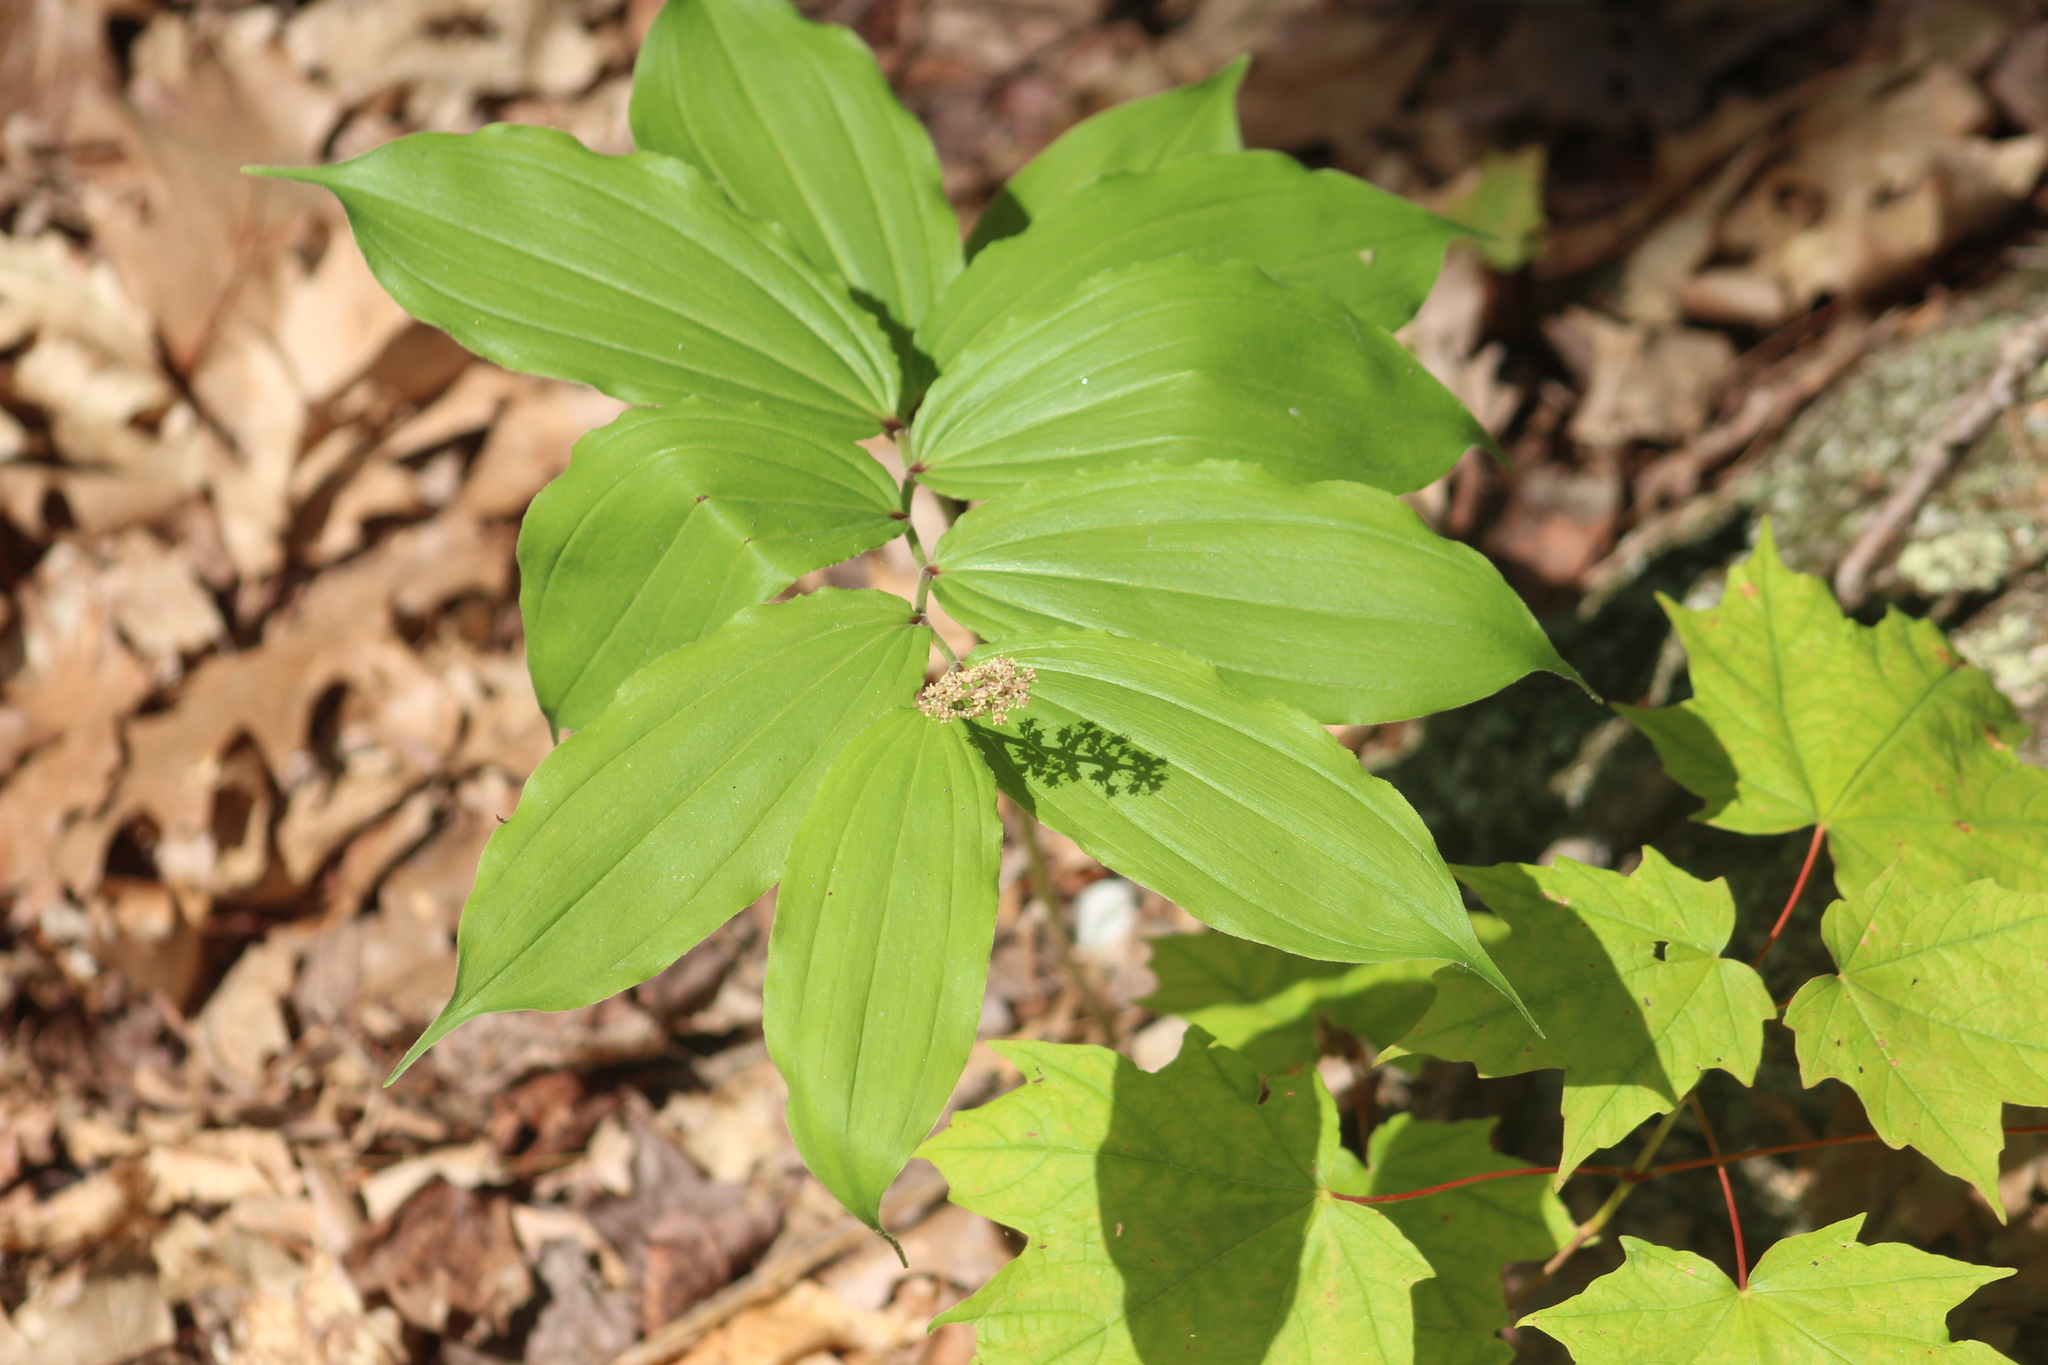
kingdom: Plantae
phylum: Tracheophyta
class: Liliopsida
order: Asparagales
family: Asparagaceae
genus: Maianthemum
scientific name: Maianthemum racemosum
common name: False spikenard
